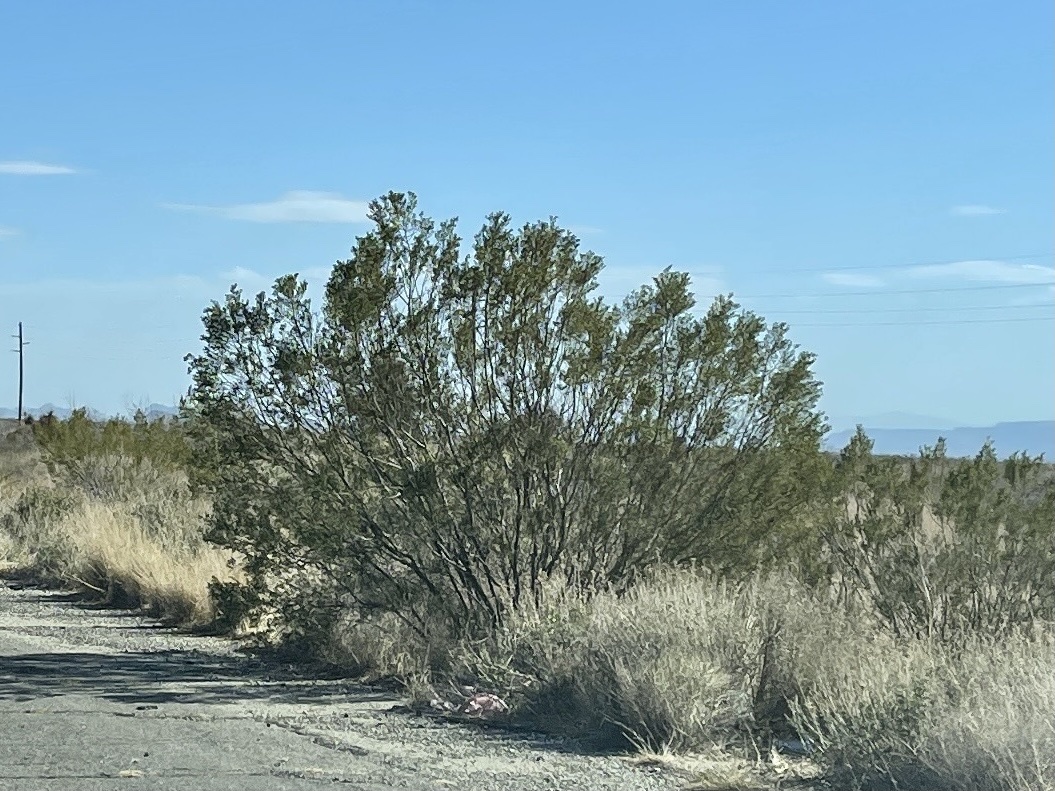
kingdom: Plantae
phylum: Tracheophyta
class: Magnoliopsida
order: Zygophyllales
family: Zygophyllaceae
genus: Larrea
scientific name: Larrea tridentata
